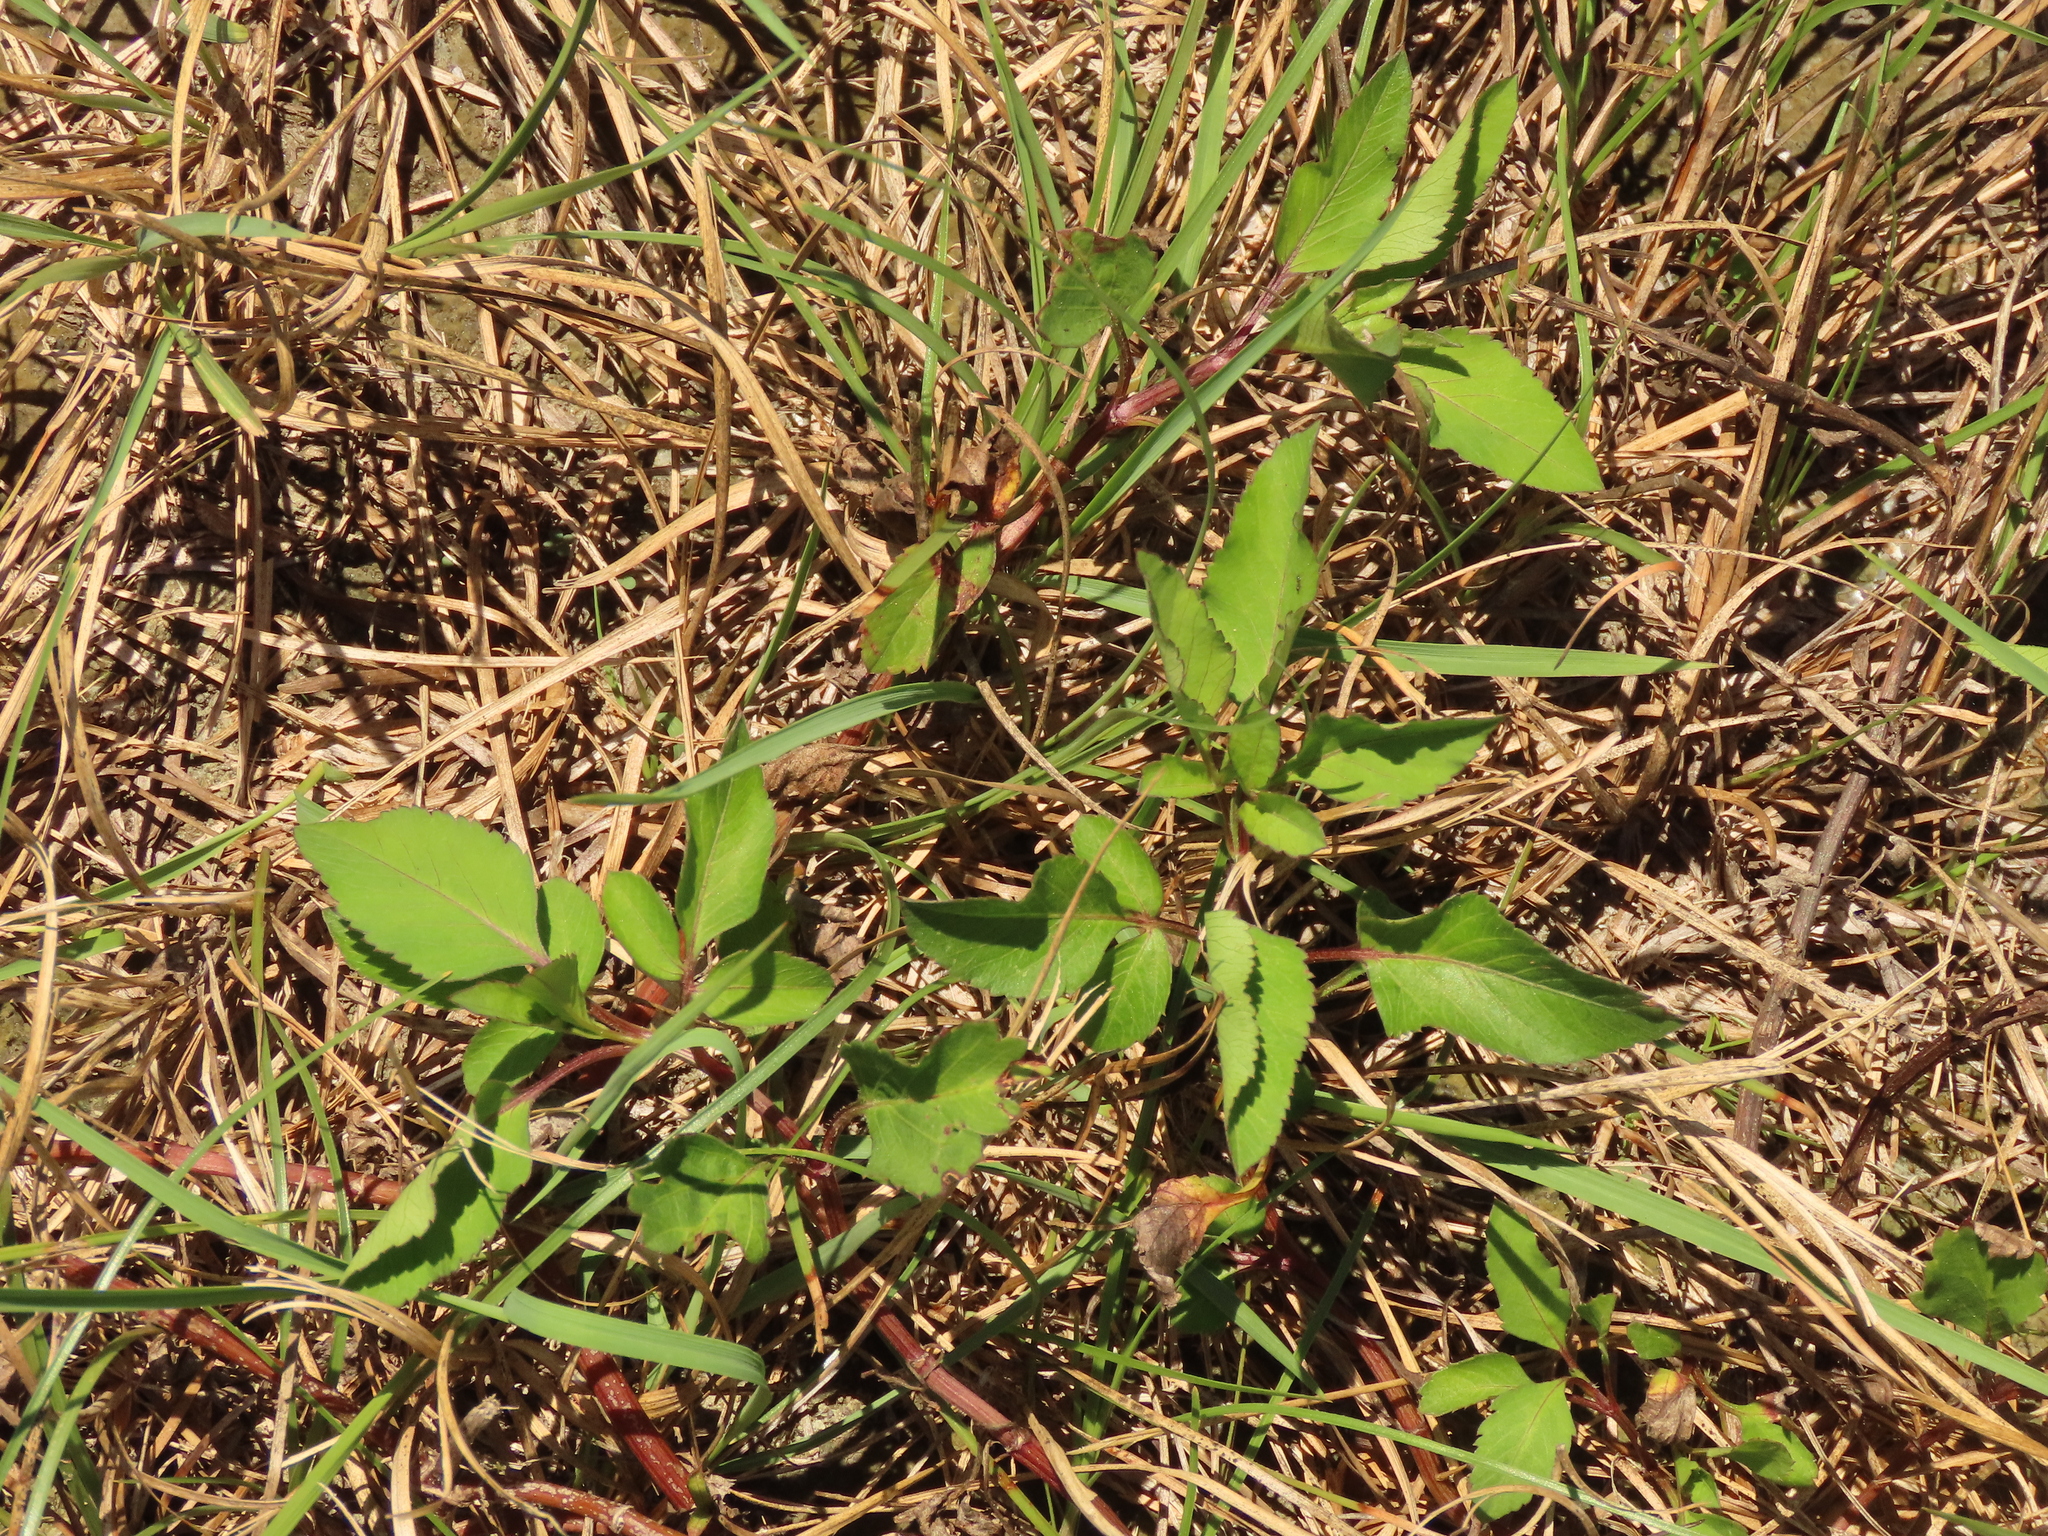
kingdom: Plantae
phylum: Tracheophyta
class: Magnoliopsida
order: Asterales
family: Asteraceae
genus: Bidens
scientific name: Bidens alba
